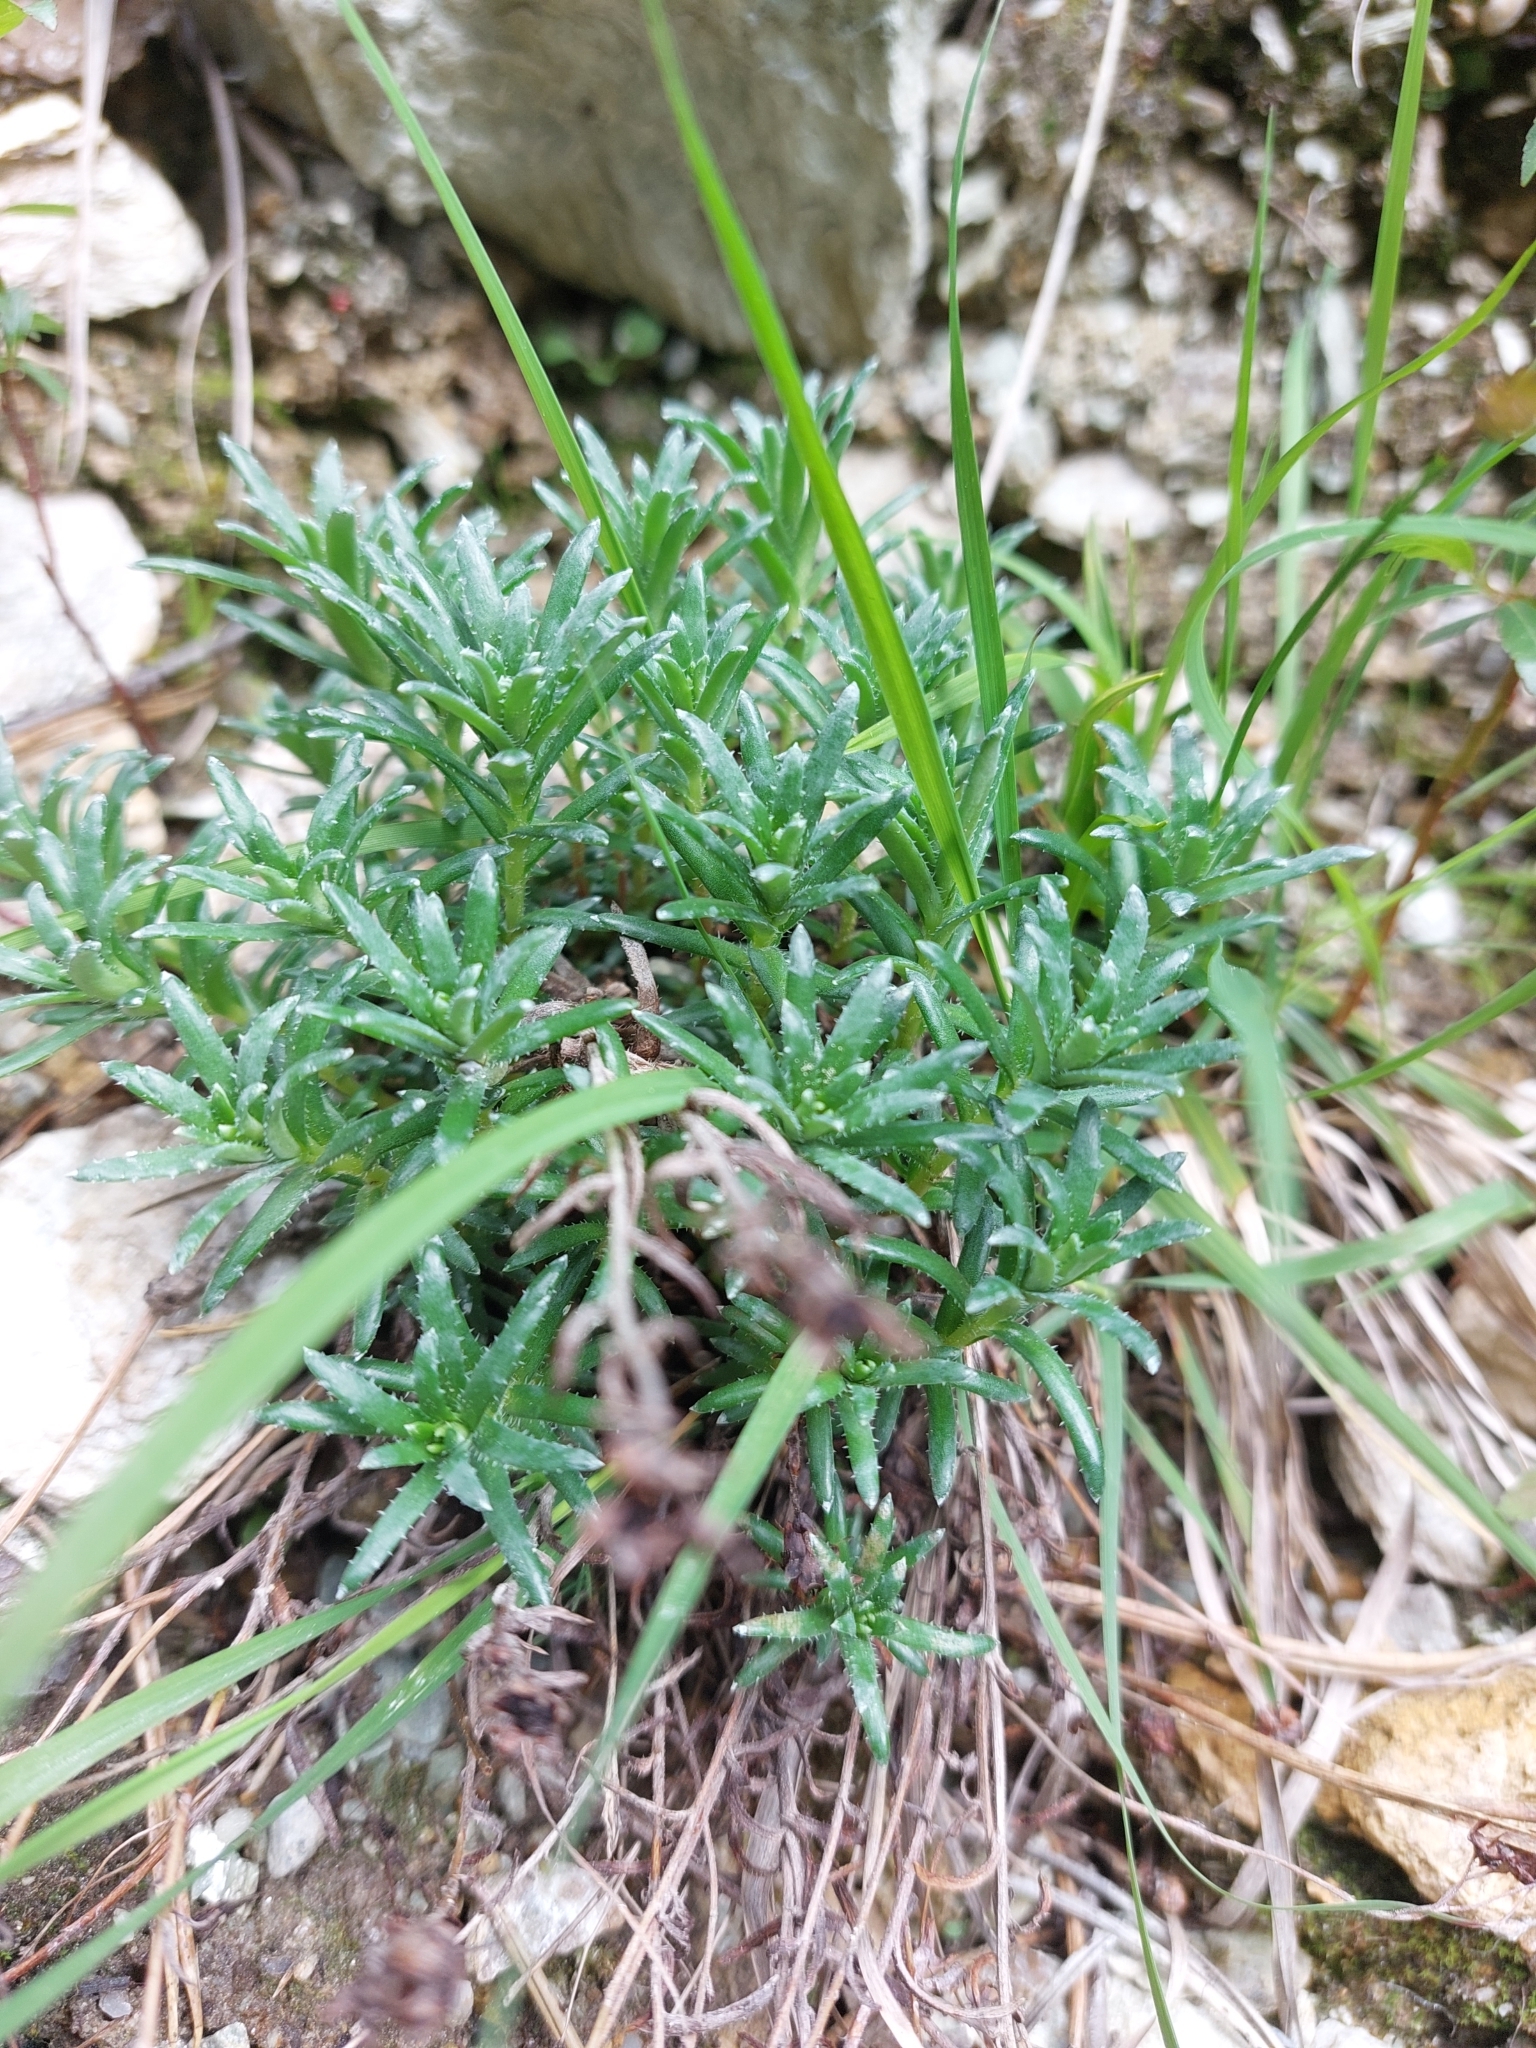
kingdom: Plantae
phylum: Tracheophyta
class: Magnoliopsida
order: Saxifragales
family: Saxifragaceae
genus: Saxifraga
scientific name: Saxifraga aizoides
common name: Yellow mountain saxifrage
